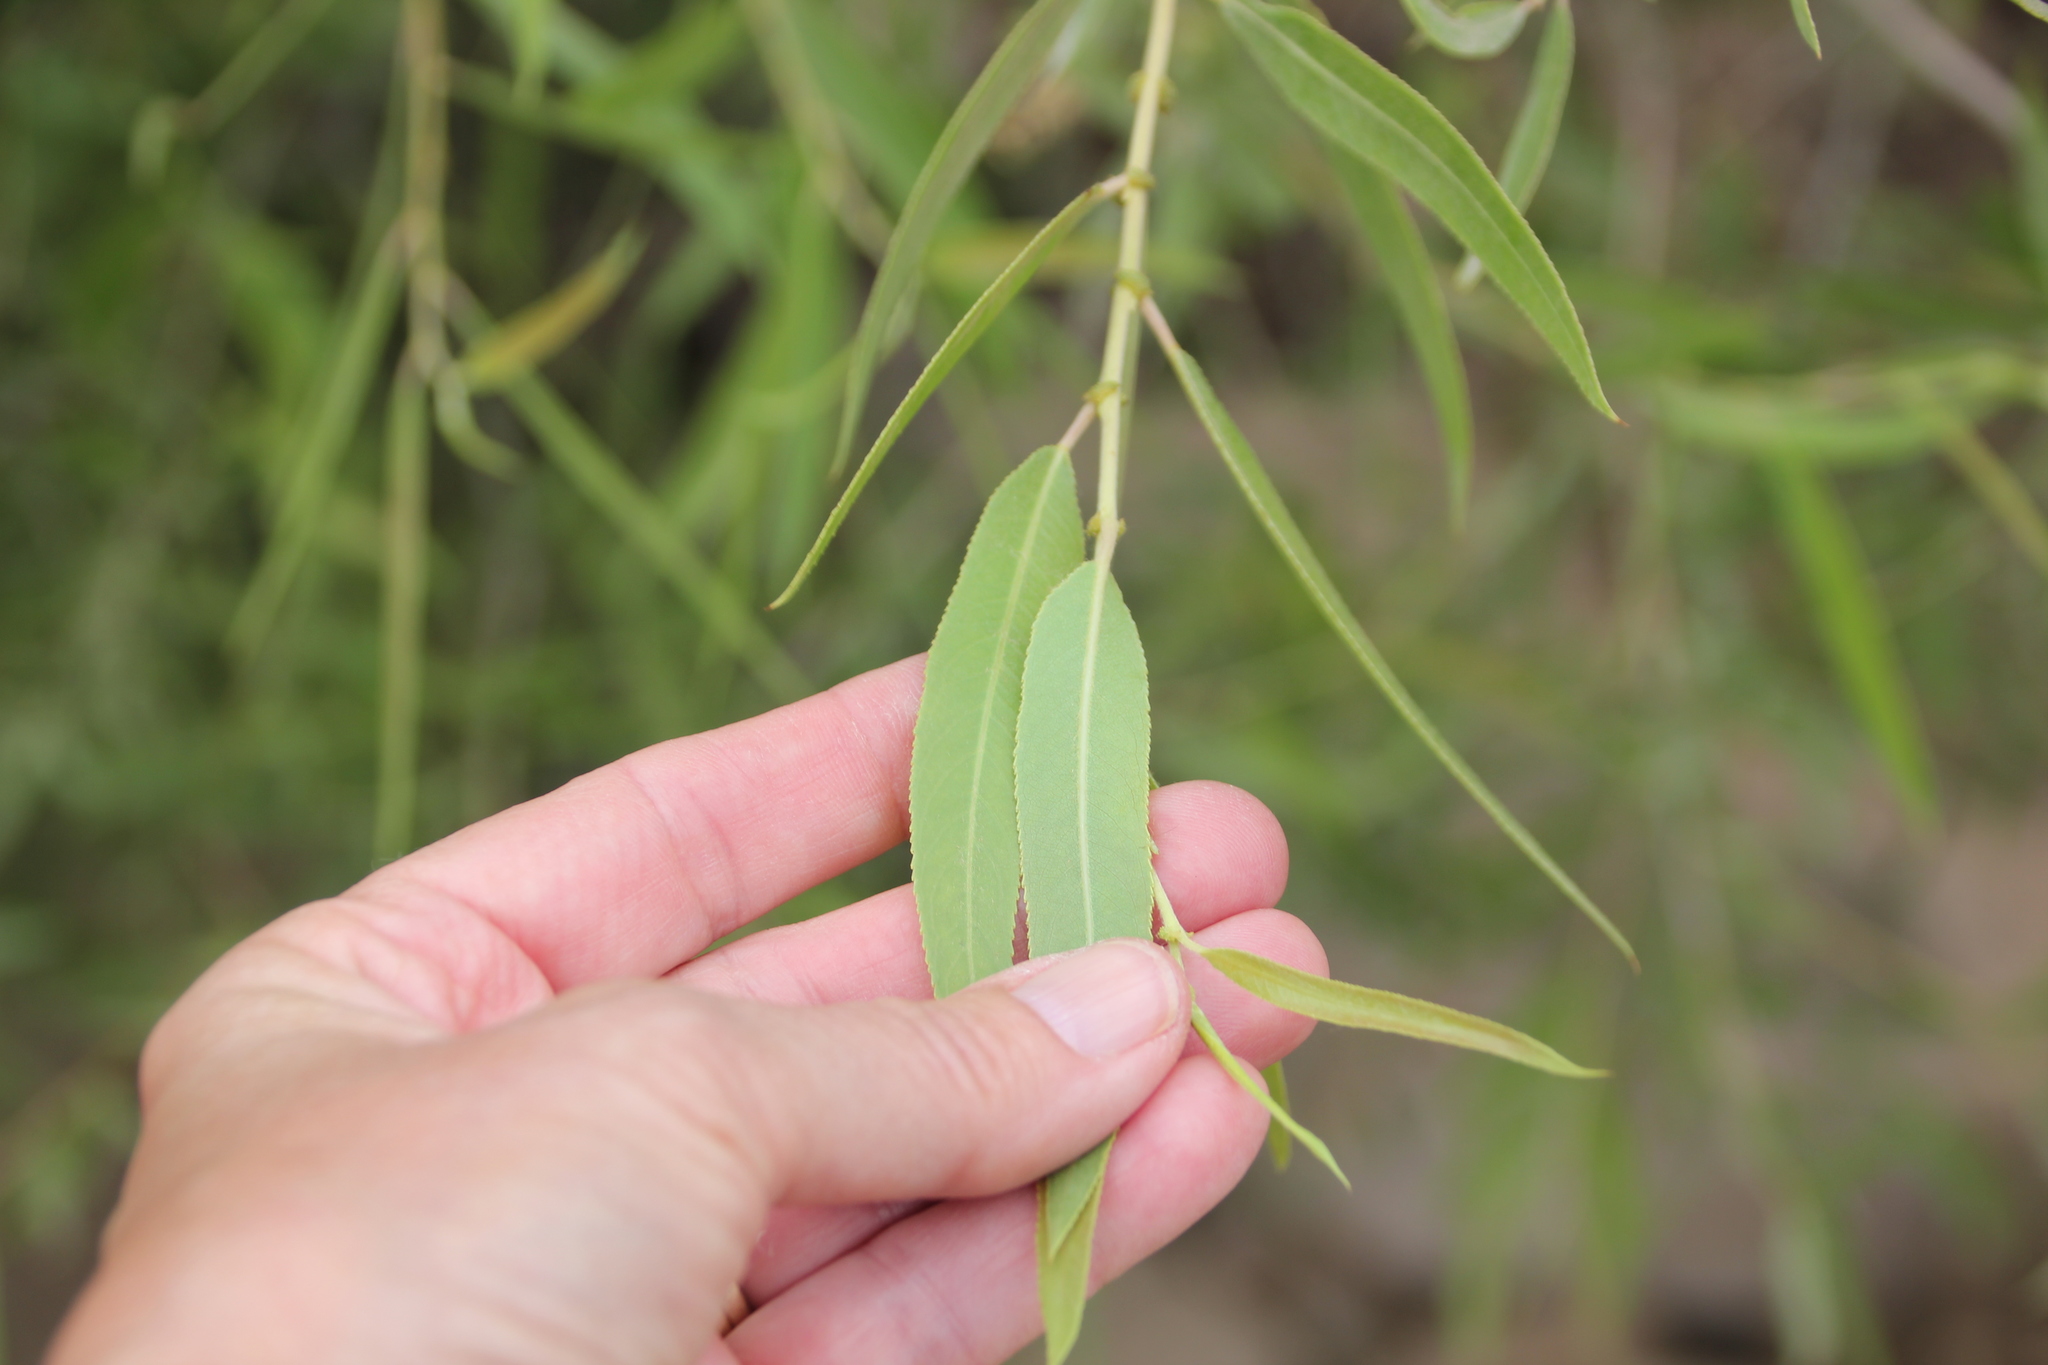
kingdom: Plantae
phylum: Tracheophyta
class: Magnoliopsida
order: Malpighiales
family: Salicaceae
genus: Salix
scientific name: Salix gooddingii
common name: Goodding's willow
